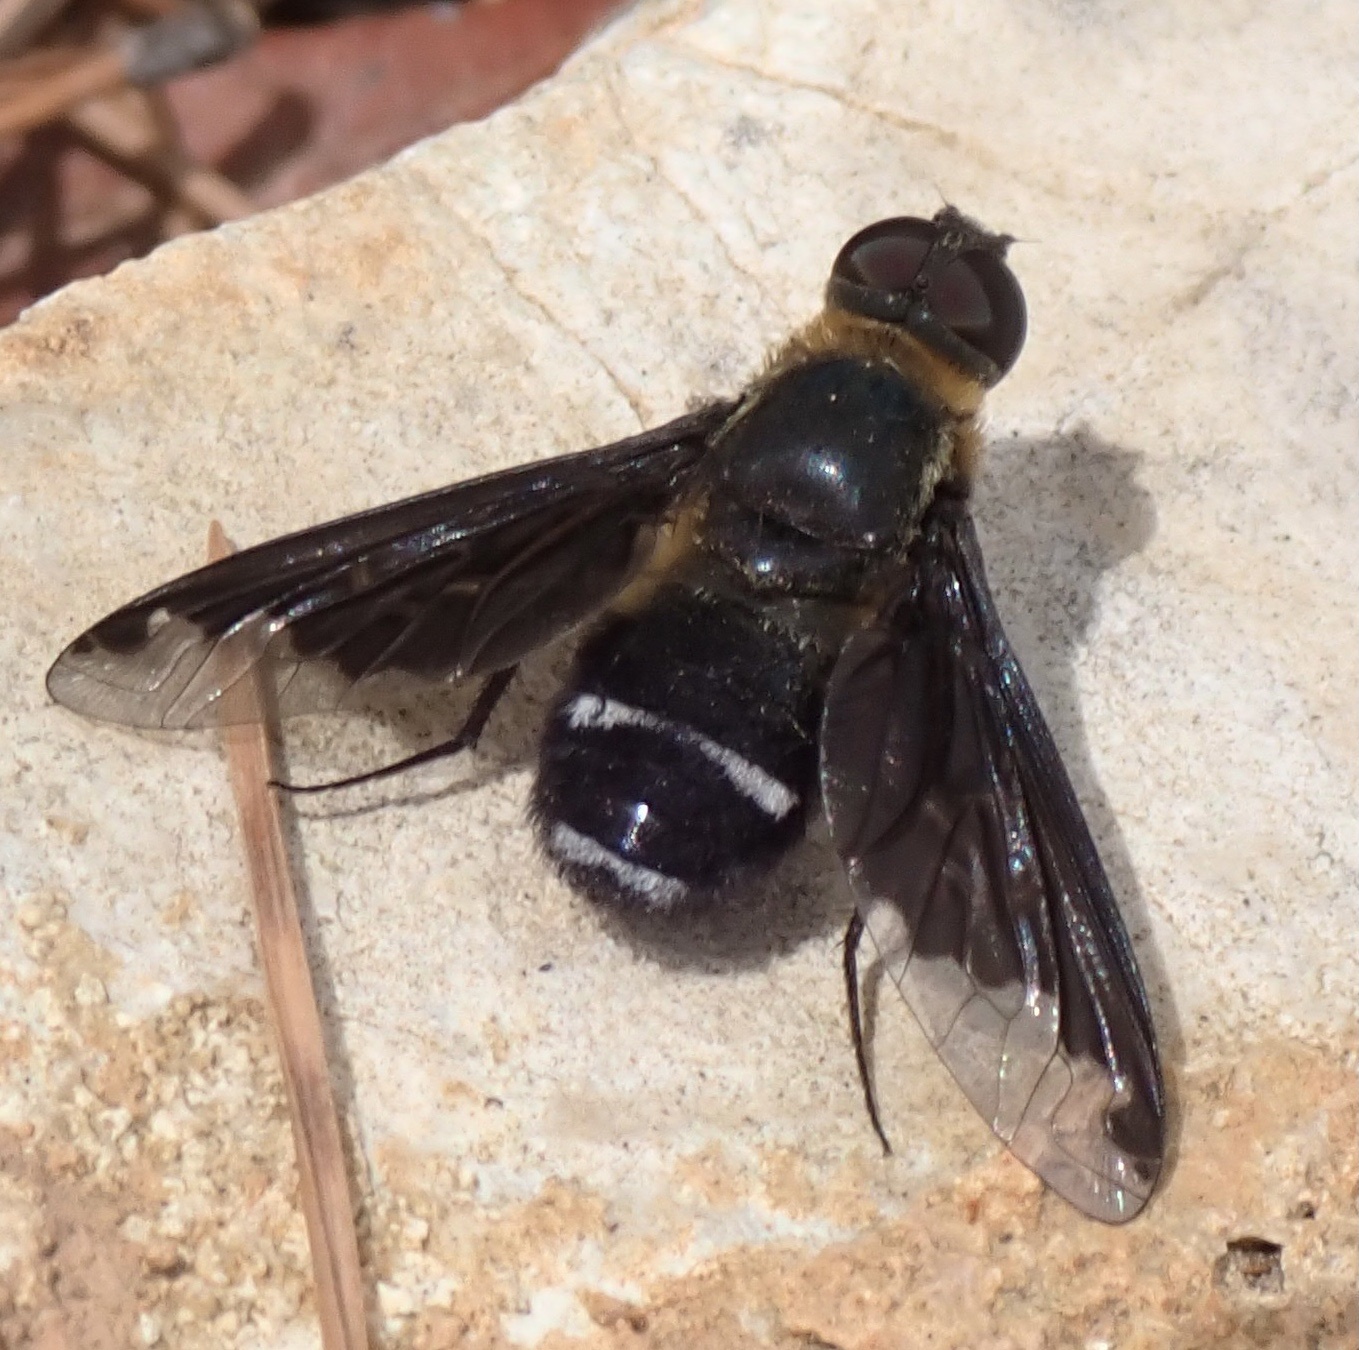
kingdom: Animalia
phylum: Arthropoda
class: Insecta
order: Diptera
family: Bombyliidae
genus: Hemipenthes
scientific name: Hemipenthes velutina
